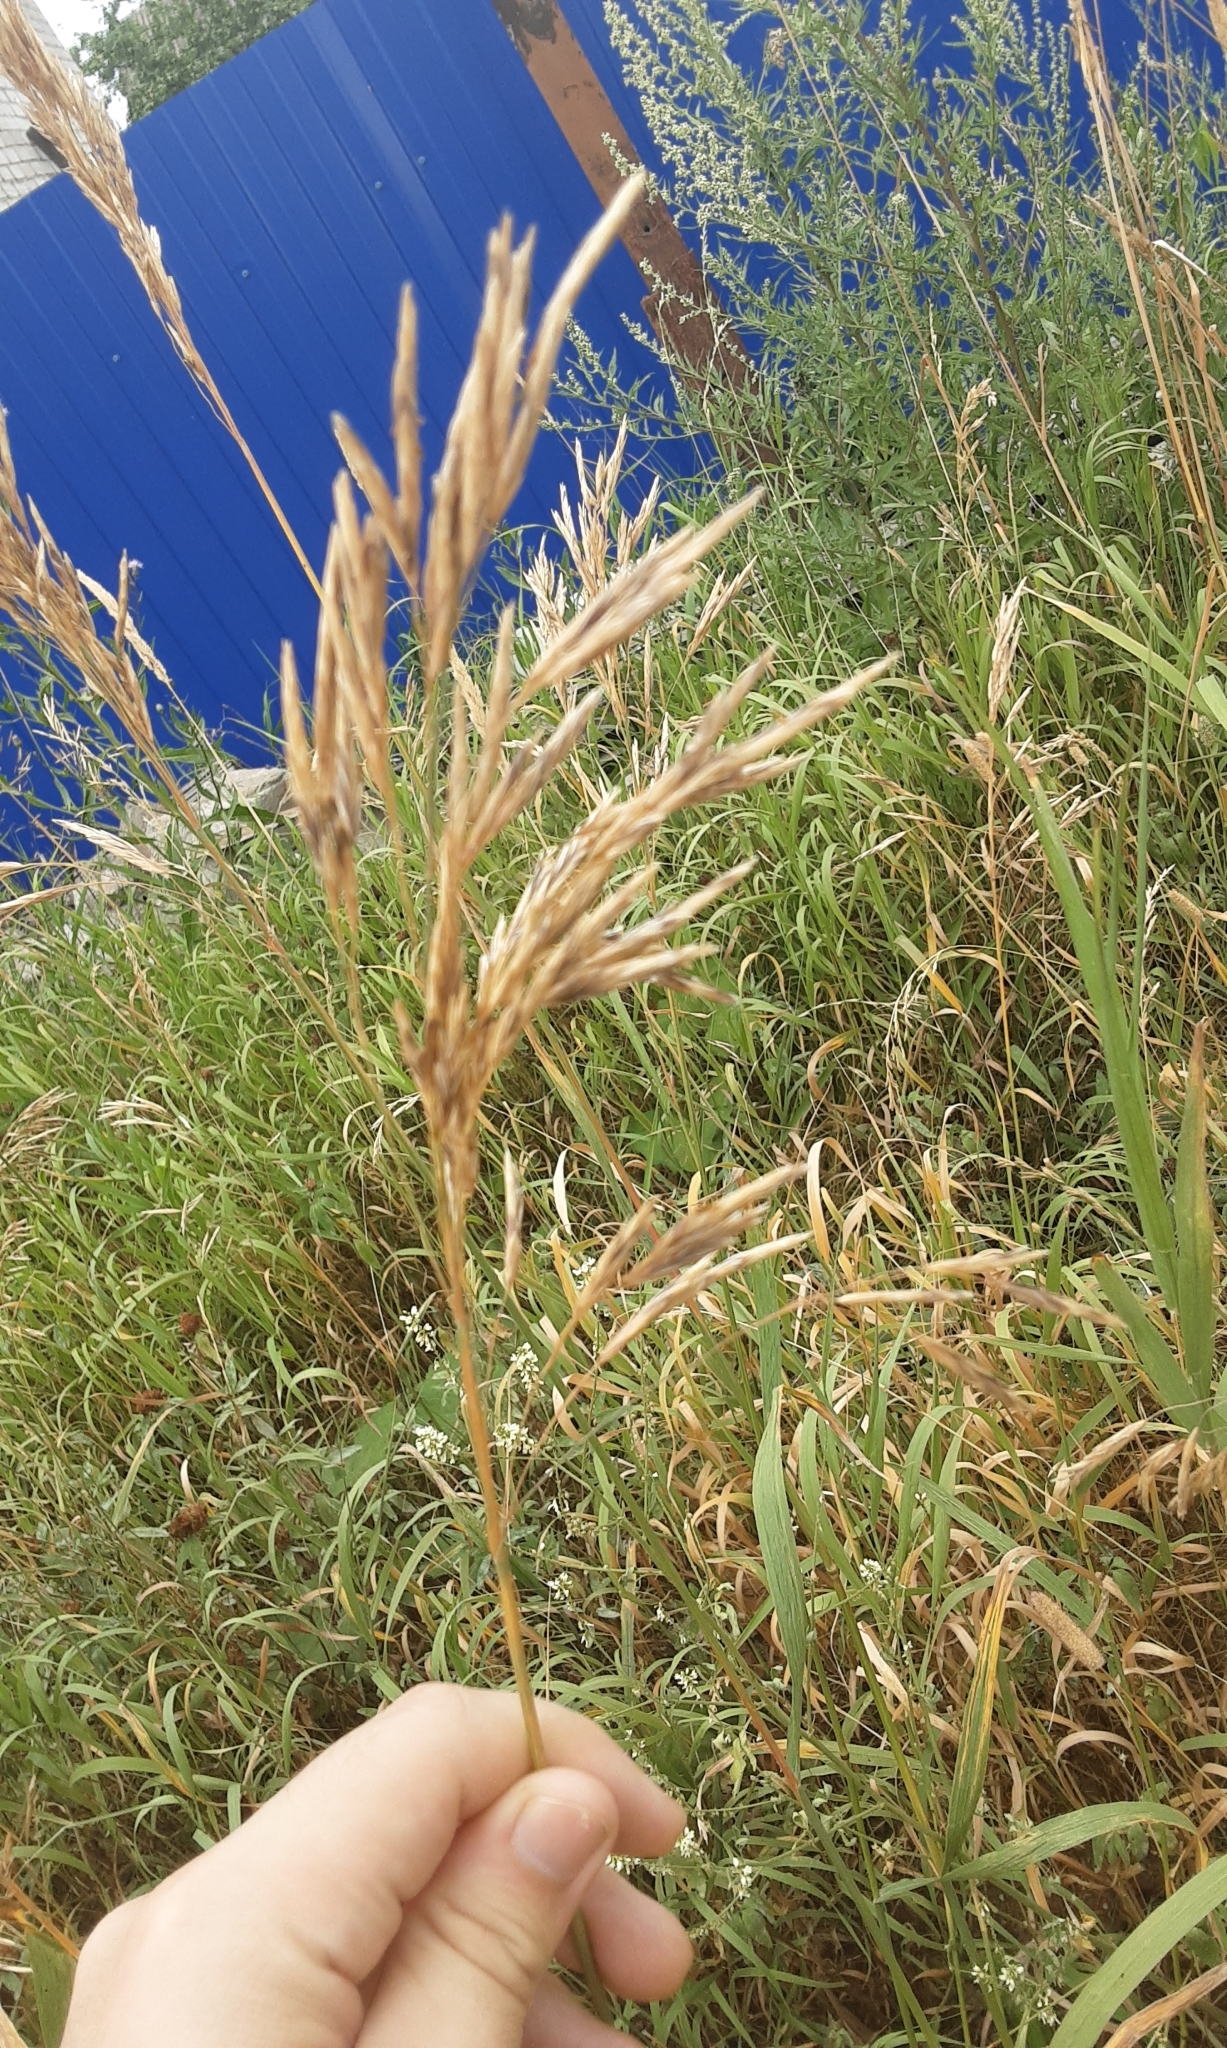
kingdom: Plantae
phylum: Tracheophyta
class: Liliopsida
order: Poales
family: Poaceae
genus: Bromus
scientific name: Bromus inermis
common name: Smooth brome
